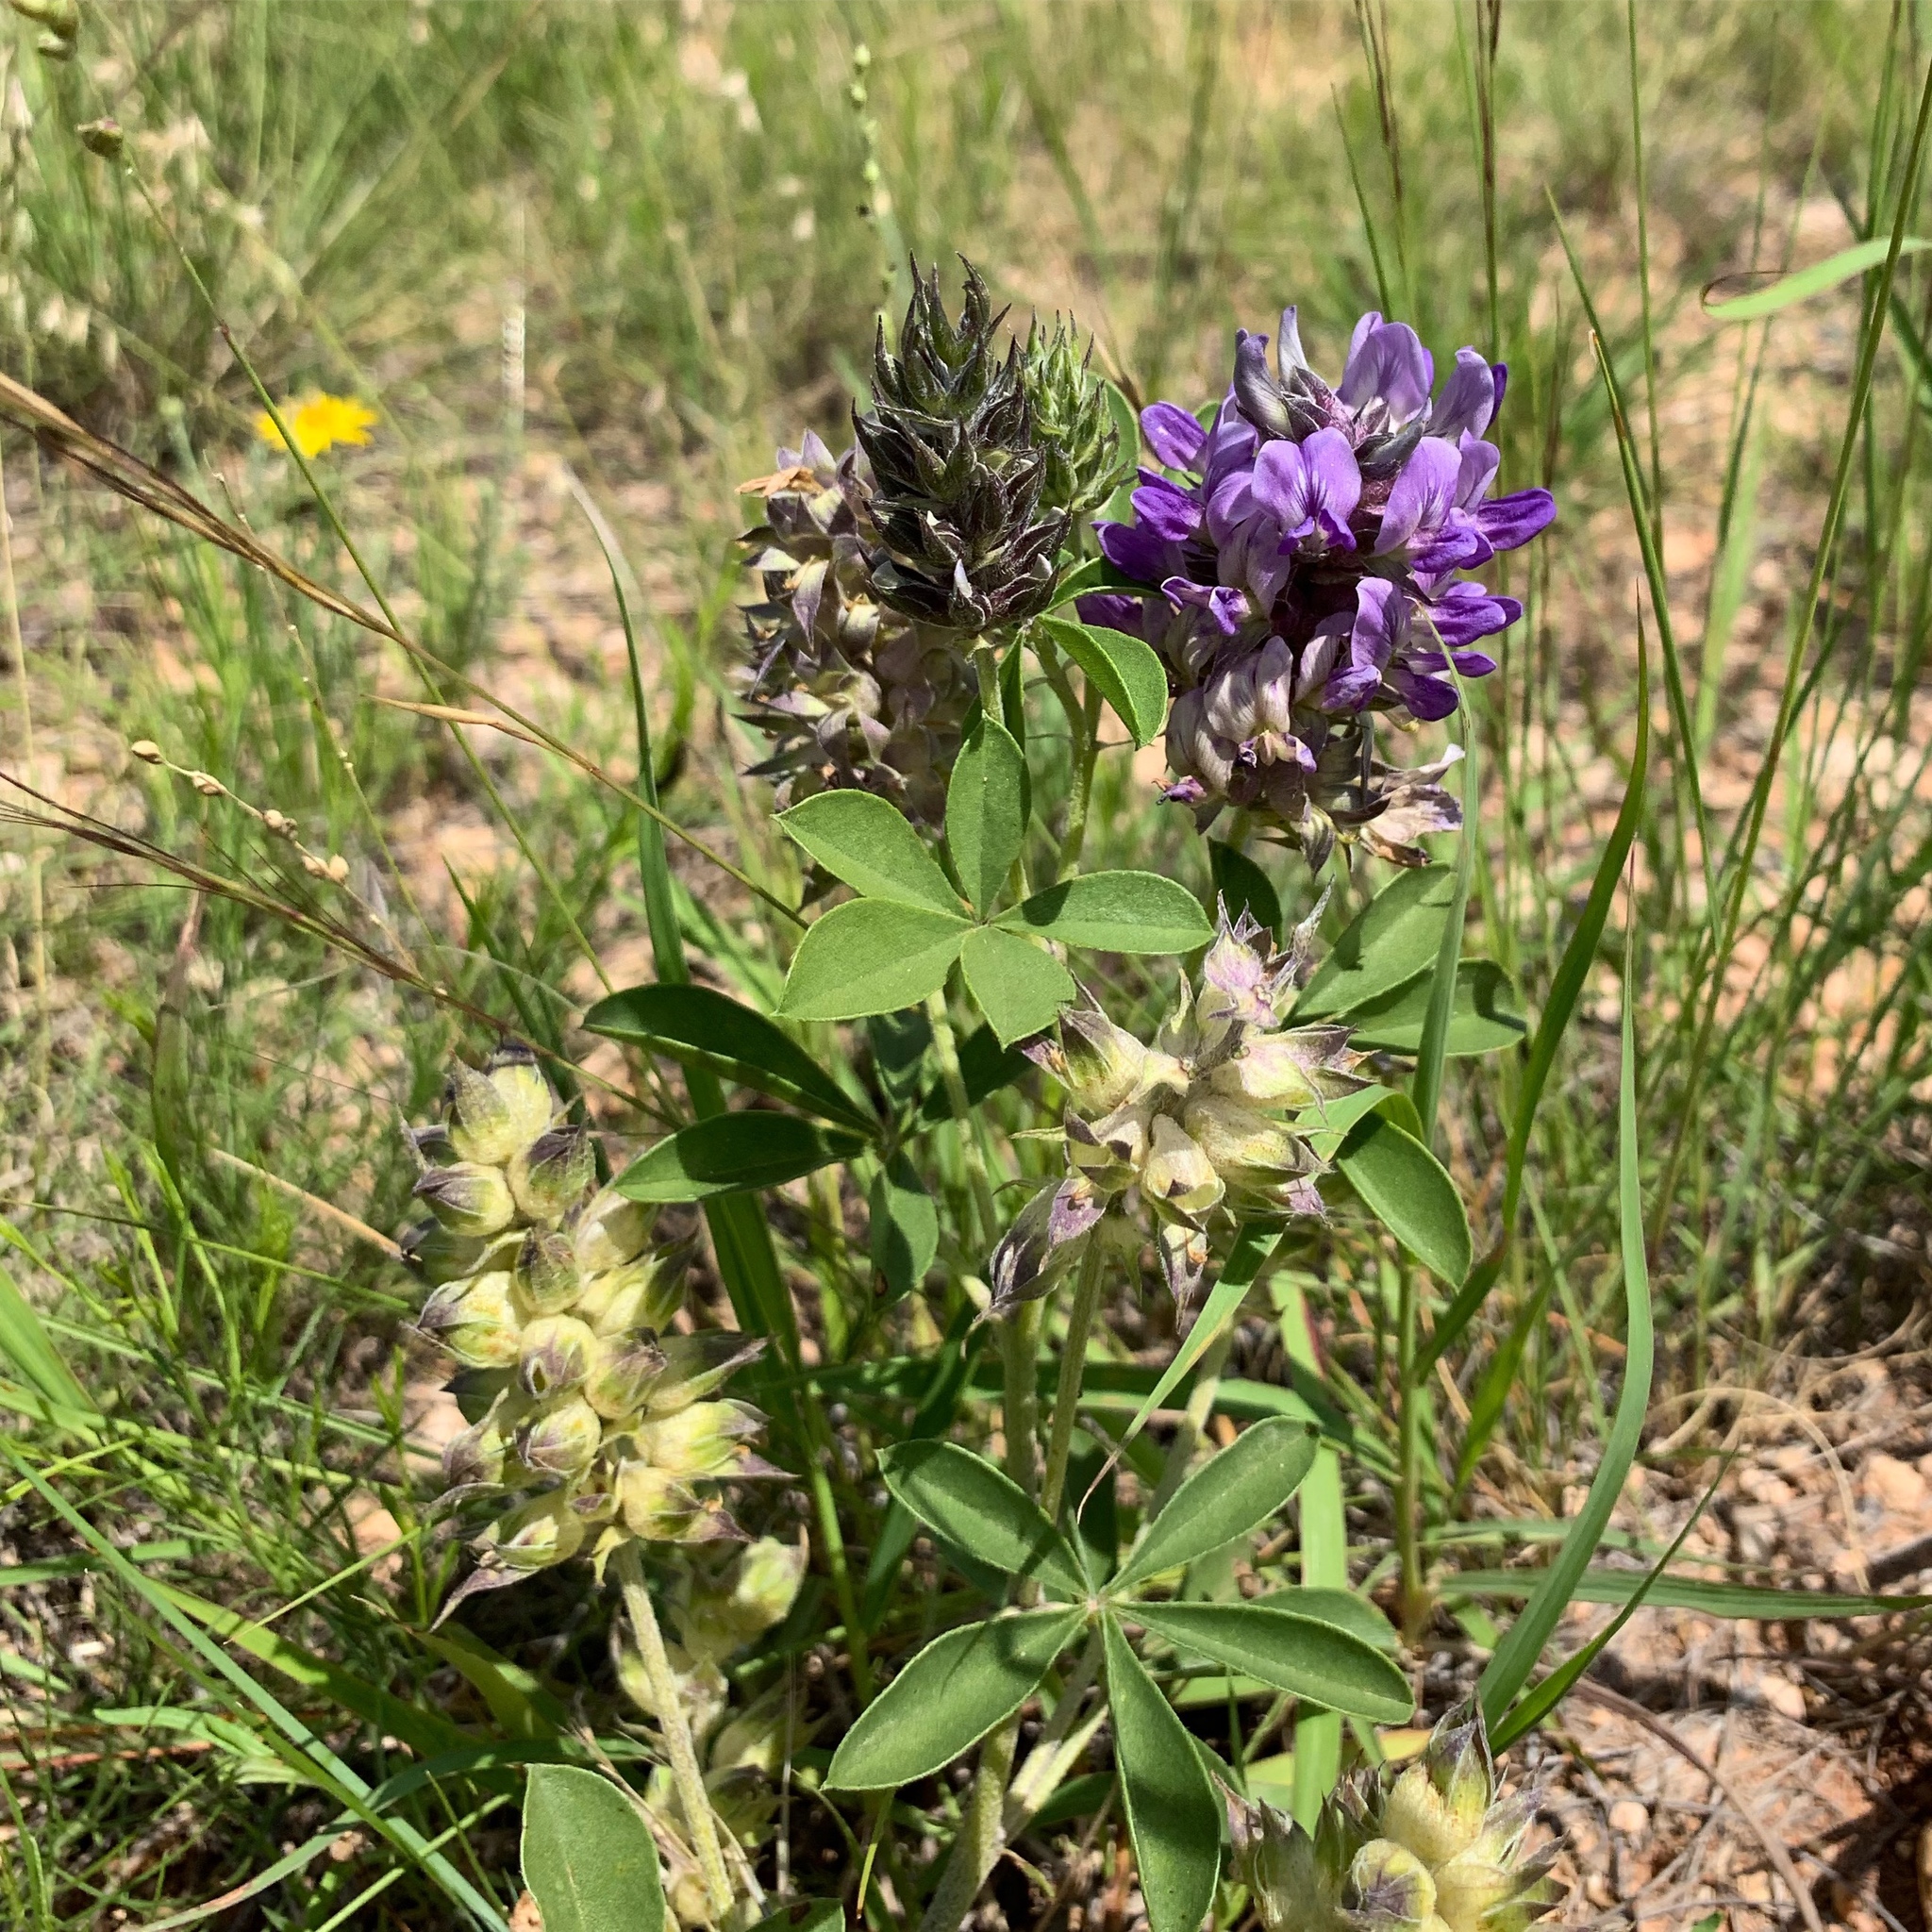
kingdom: Plantae
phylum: Tracheophyta
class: Magnoliopsida
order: Fabales
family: Fabaceae
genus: Pediomelum
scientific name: Pediomelum cuspidatum
